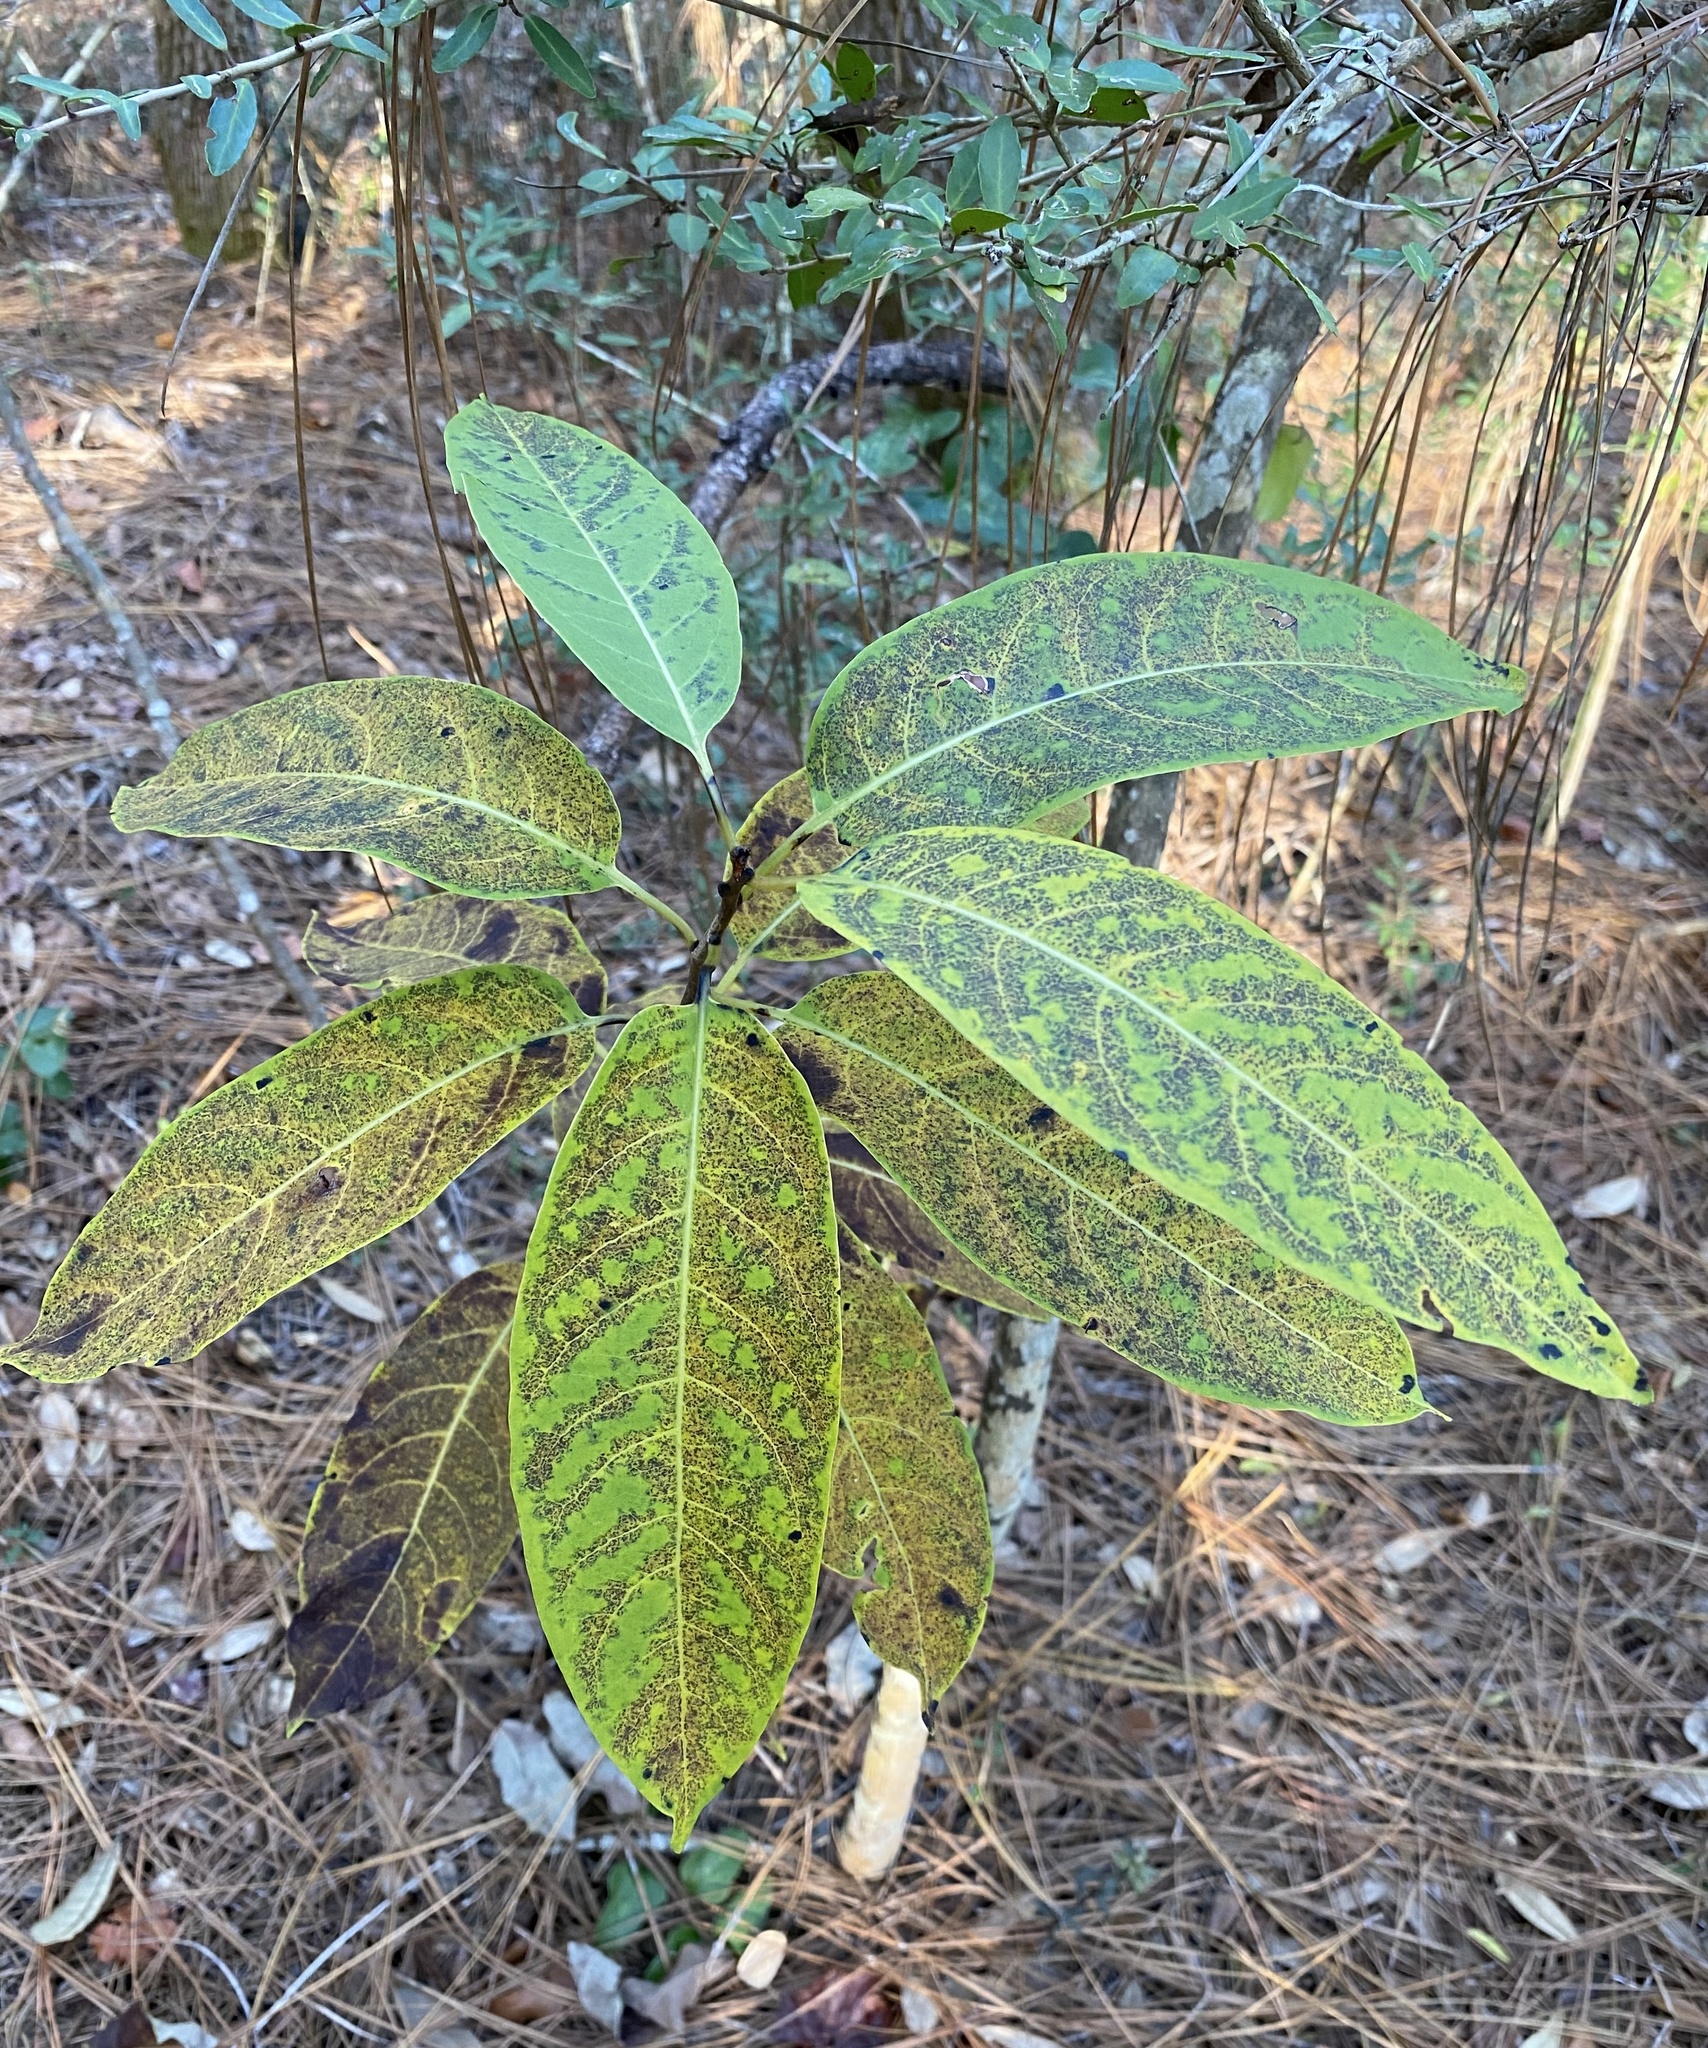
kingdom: Plantae
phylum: Tracheophyta
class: Magnoliopsida
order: Ericales
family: Ebenaceae
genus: Diospyros
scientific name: Diospyros virginiana
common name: Persimmon
